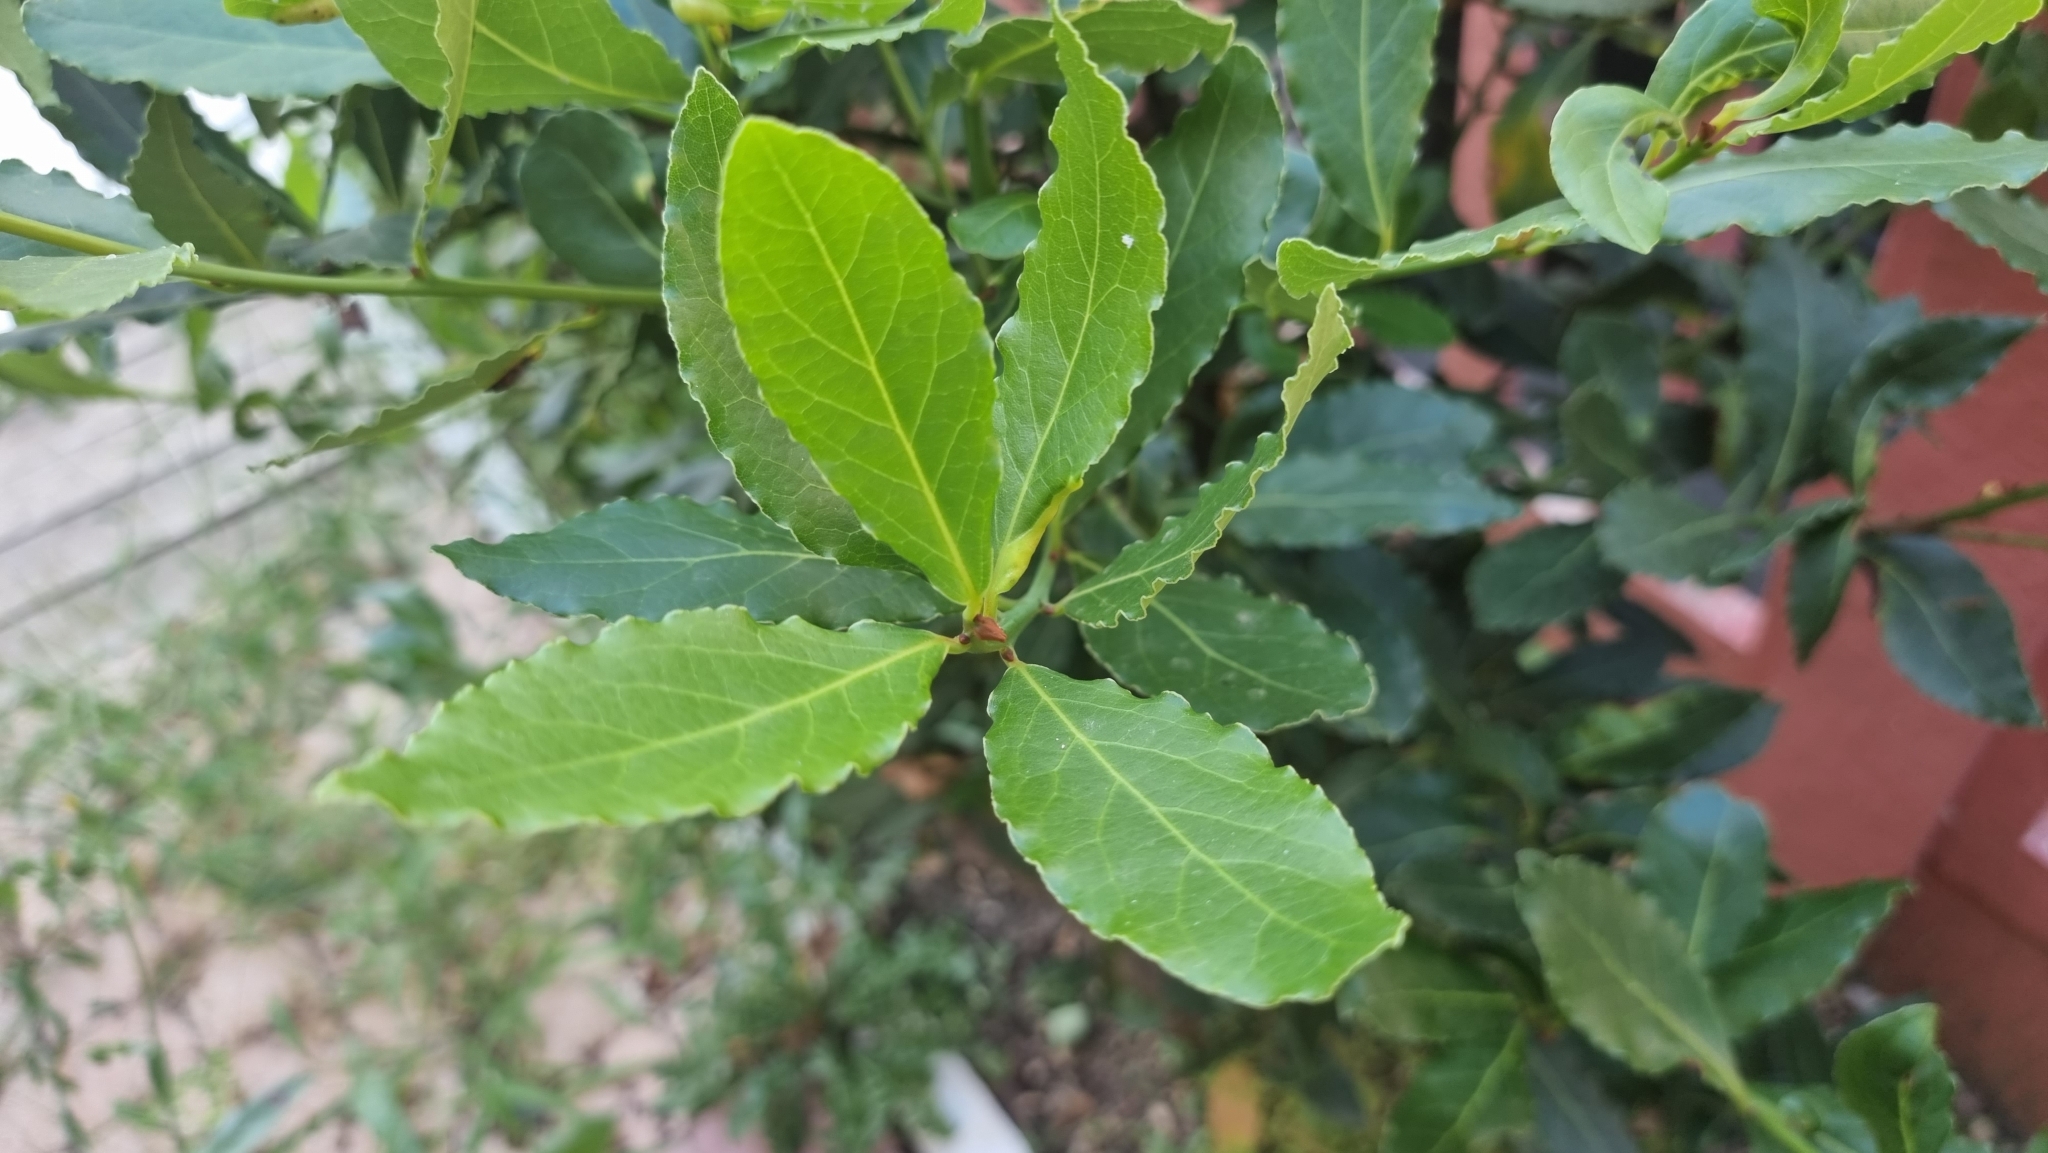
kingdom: Plantae
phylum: Tracheophyta
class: Magnoliopsida
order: Laurales
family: Lauraceae
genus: Laurus
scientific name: Laurus nobilis
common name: Bay
